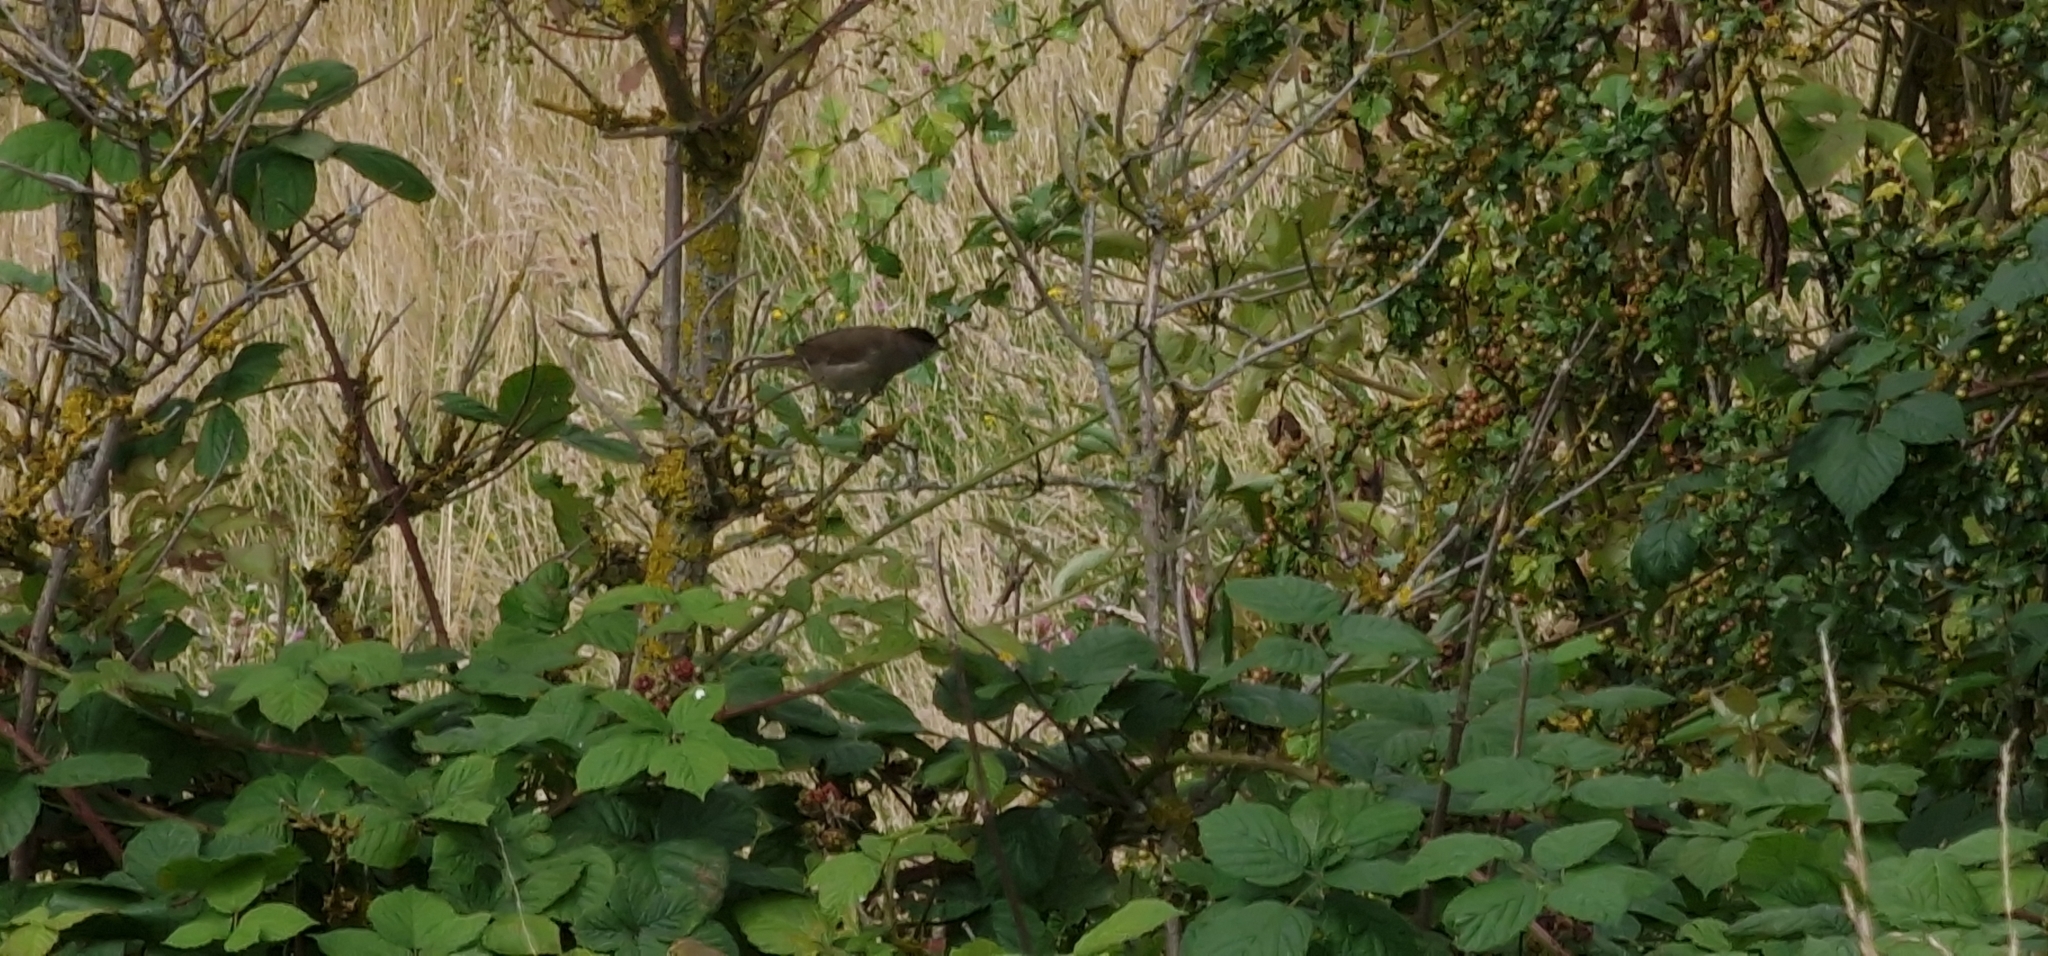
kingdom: Animalia
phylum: Chordata
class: Aves
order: Passeriformes
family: Sylviidae
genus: Sylvia
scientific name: Sylvia atricapilla
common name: Eurasian blackcap
